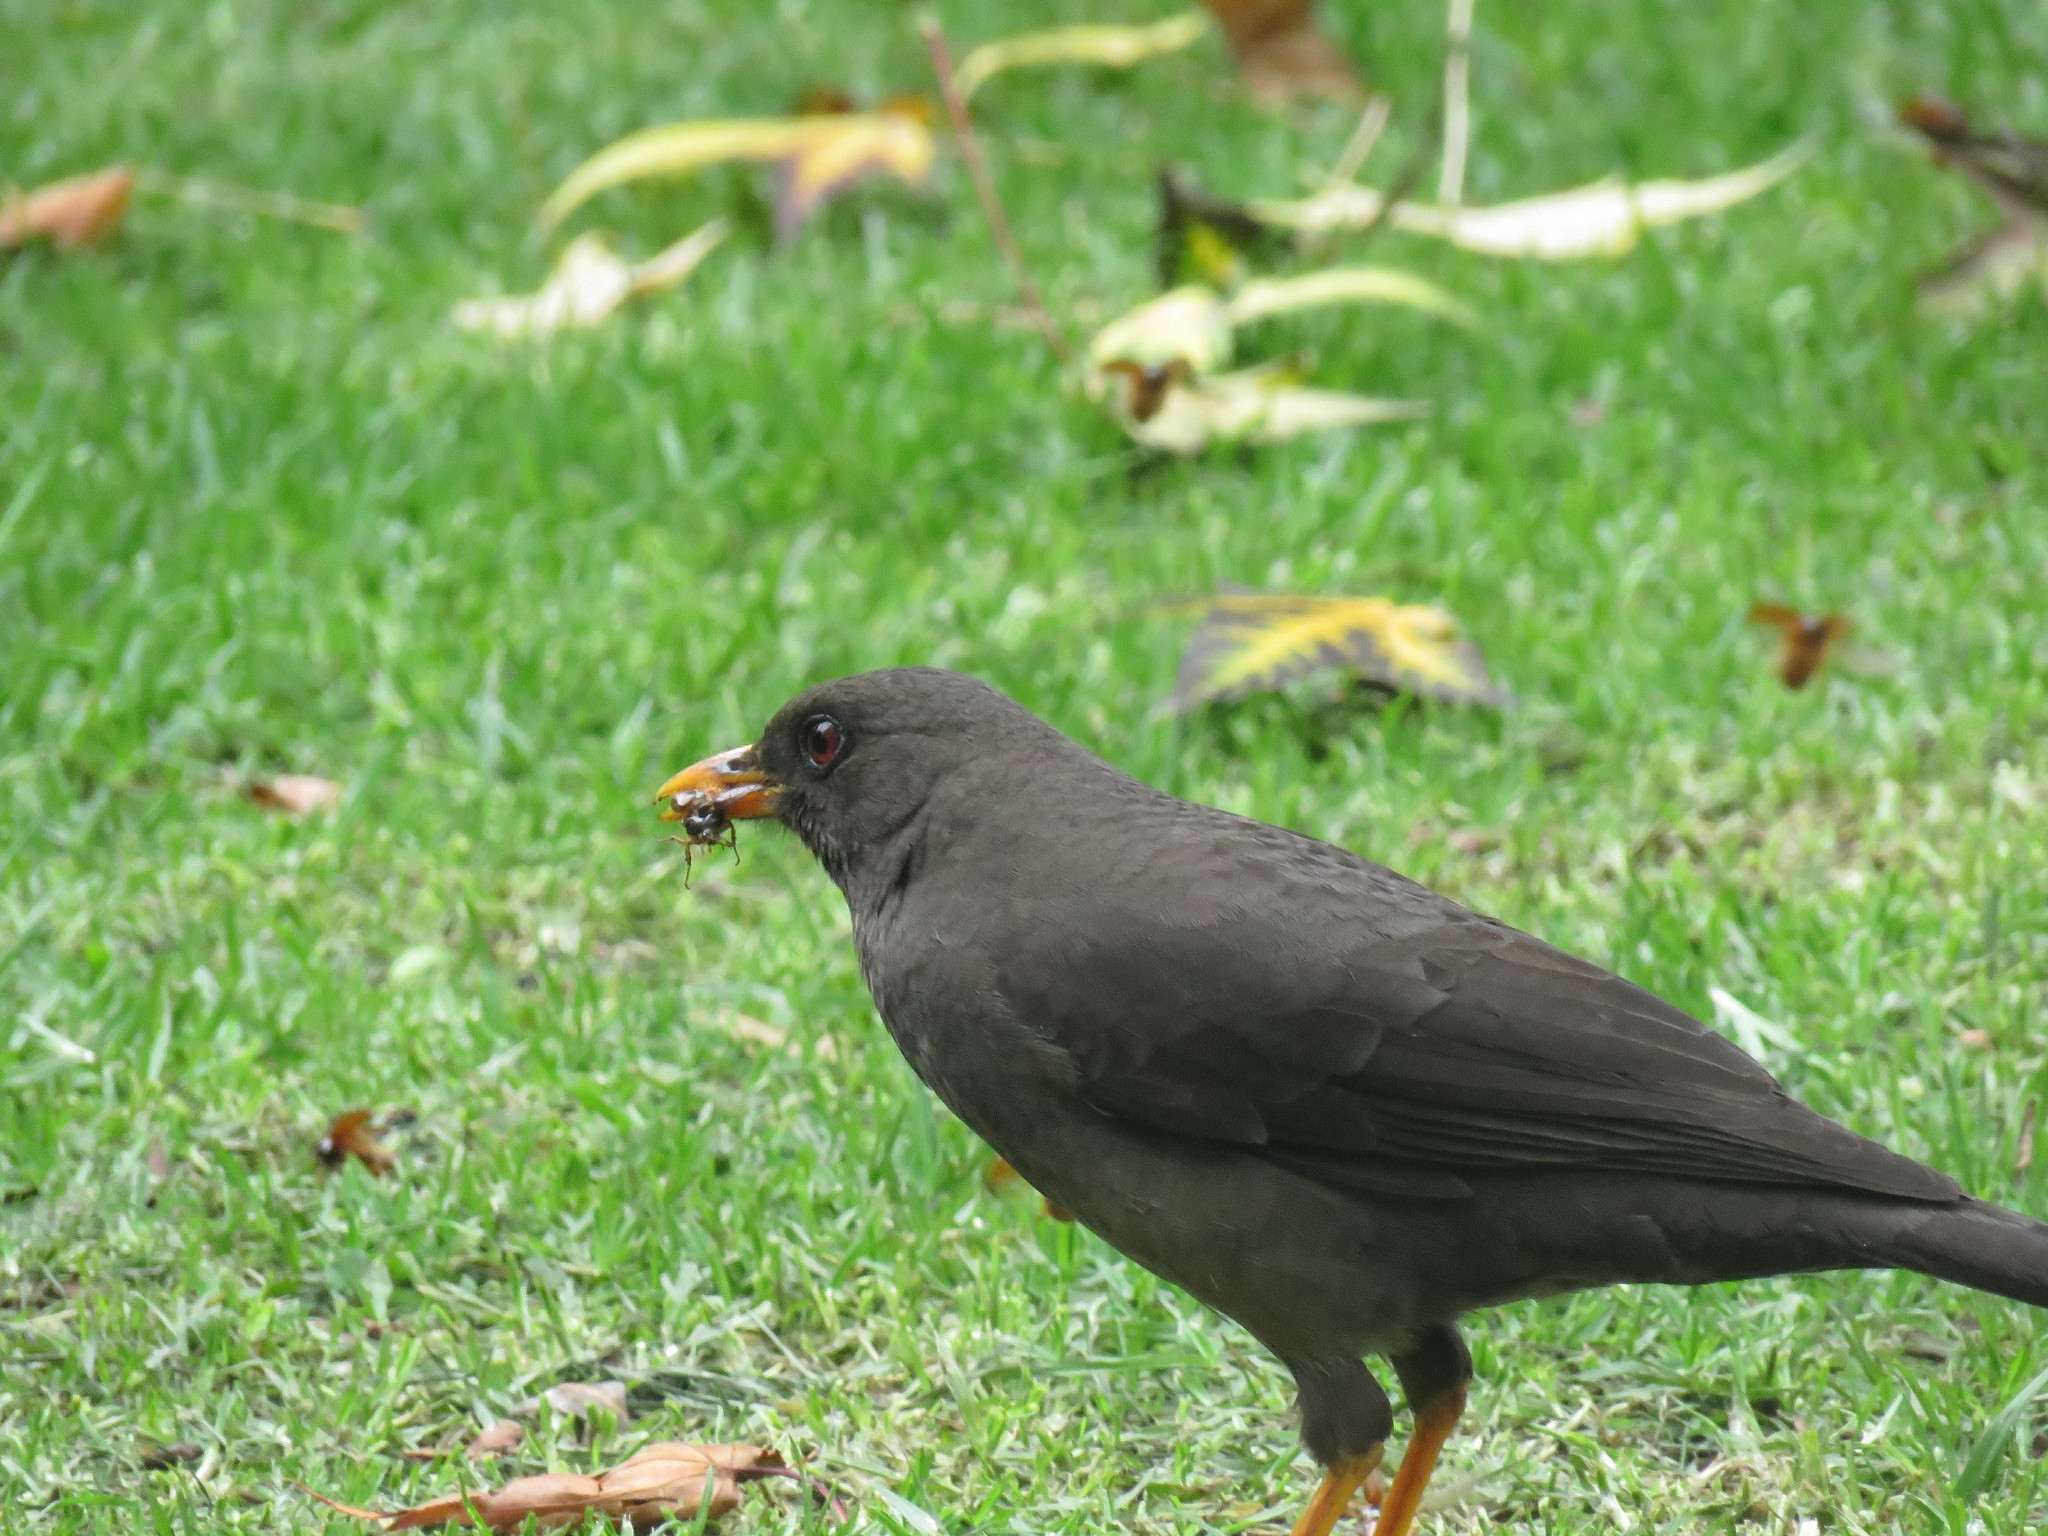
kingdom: Animalia
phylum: Arthropoda
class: Insecta
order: Coleoptera
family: Scarabaeidae
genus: Paulosawaya
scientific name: Paulosawaya ursina
